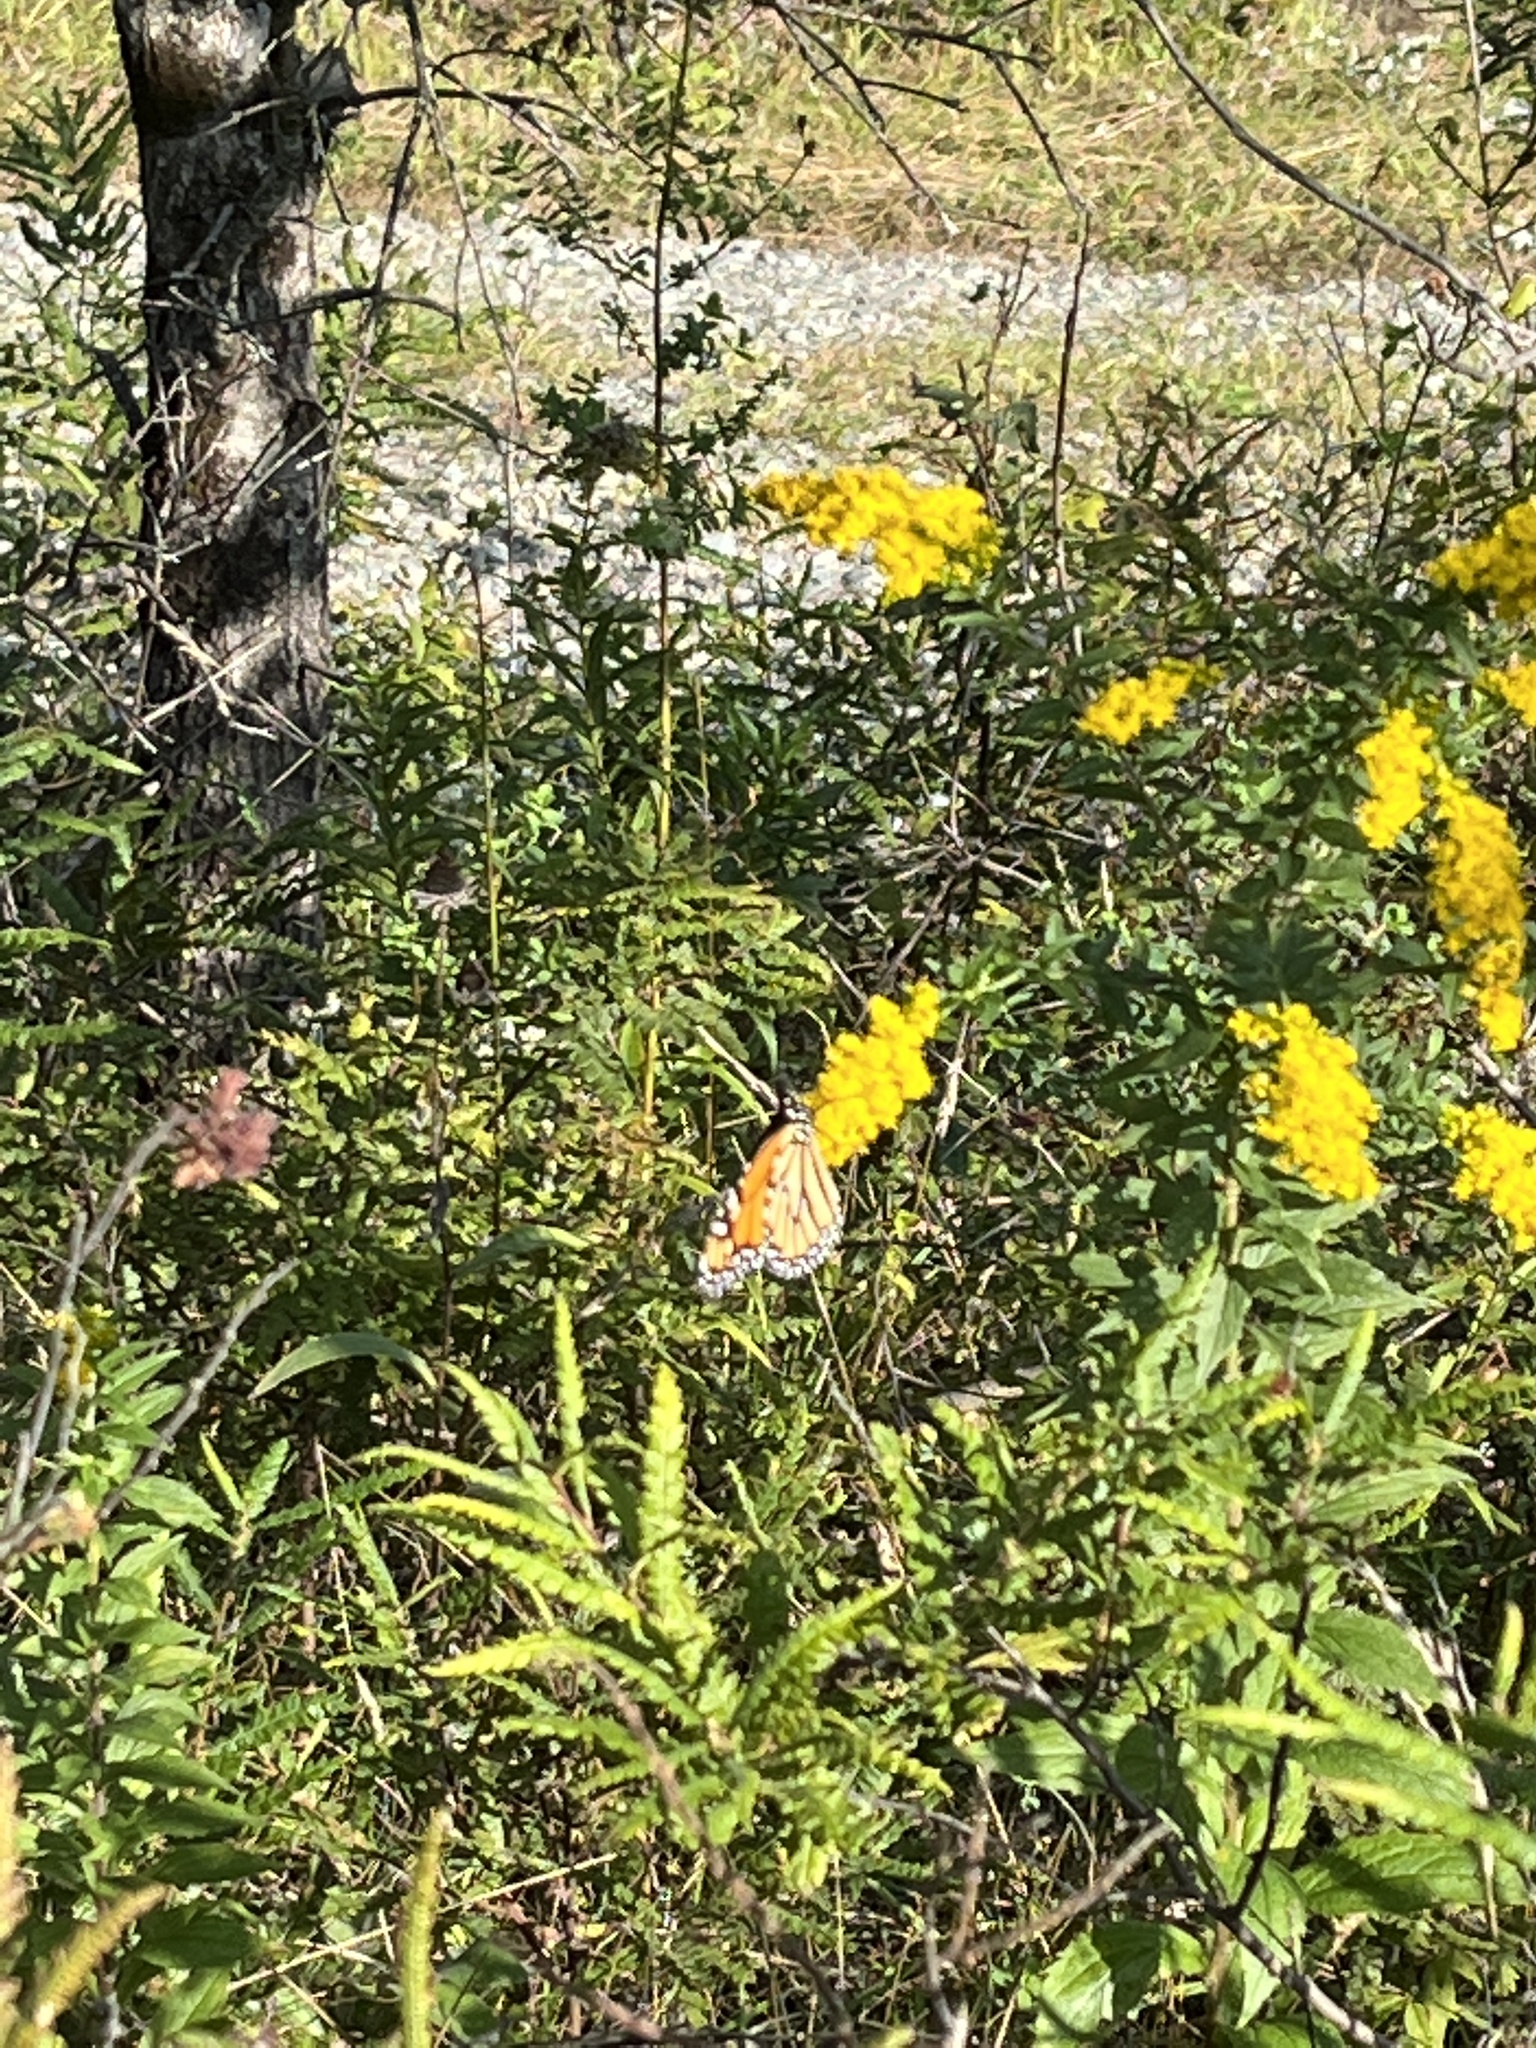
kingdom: Animalia
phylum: Arthropoda
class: Insecta
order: Lepidoptera
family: Nymphalidae
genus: Danaus
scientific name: Danaus plexippus
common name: Monarch
